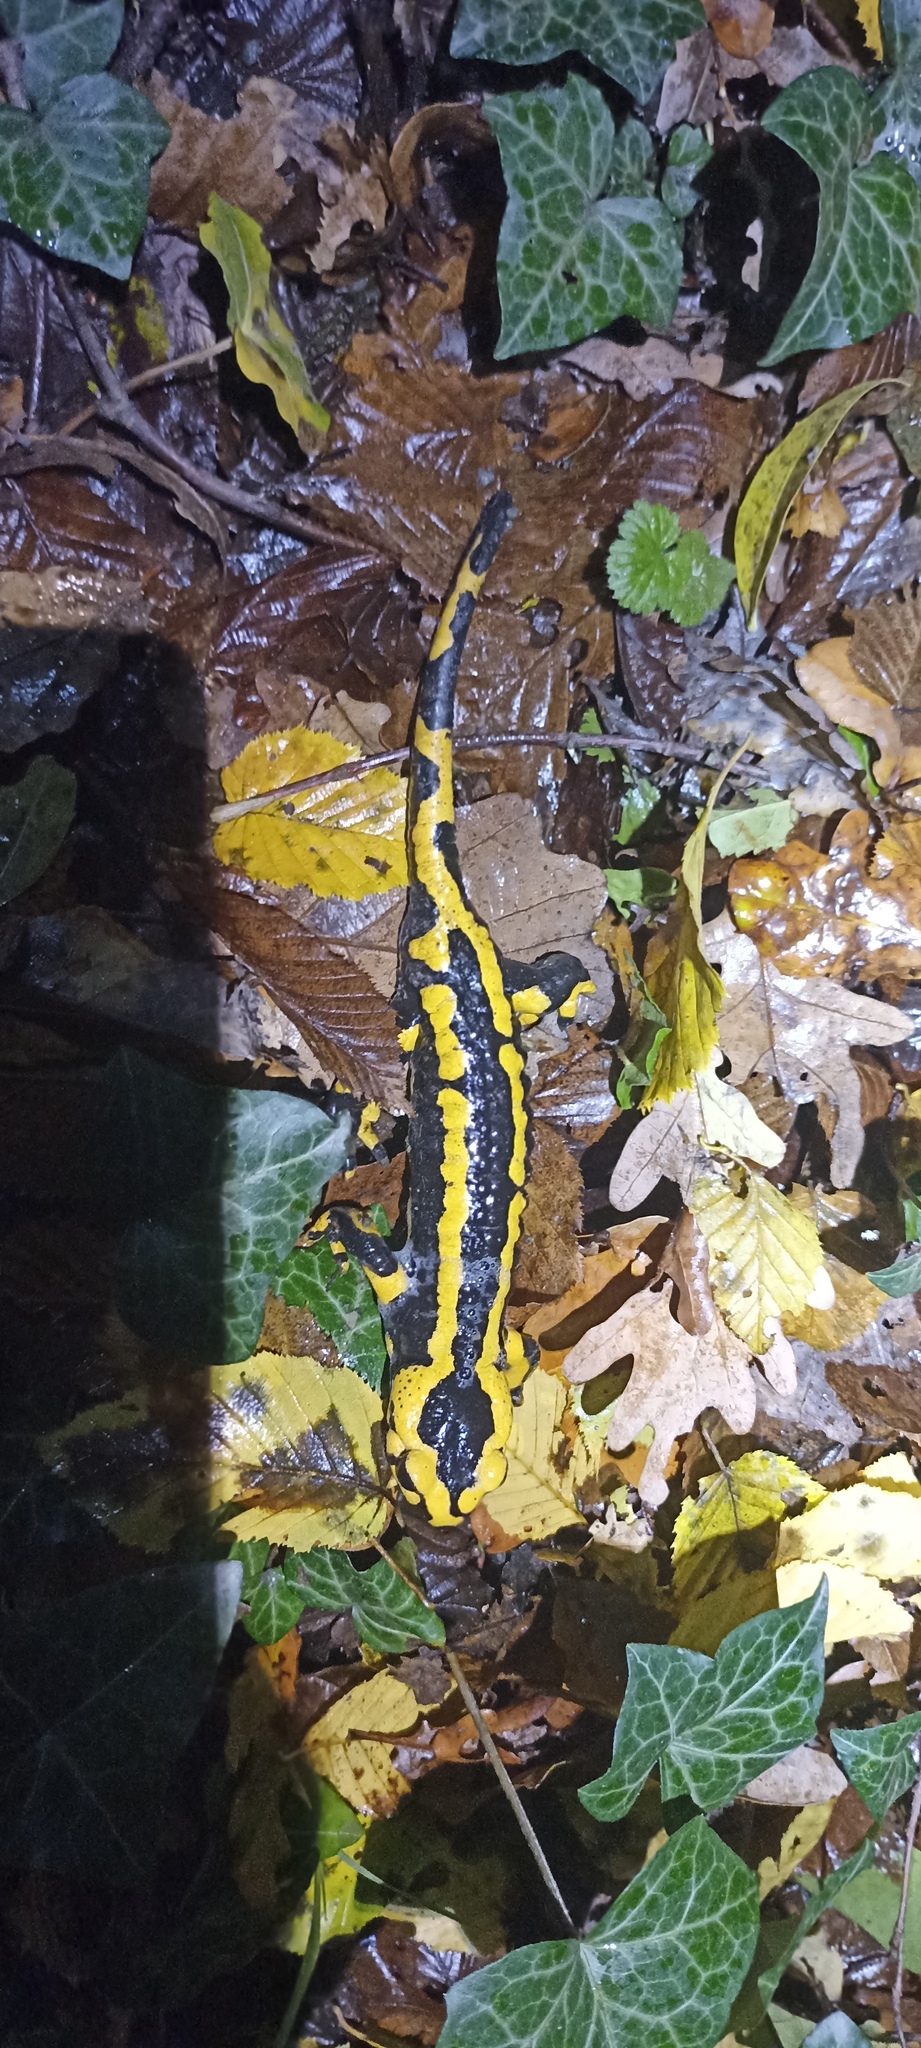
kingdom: Animalia
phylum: Chordata
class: Amphibia
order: Caudata
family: Salamandridae
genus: Salamandra
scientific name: Salamandra salamandra
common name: Fire salamander
